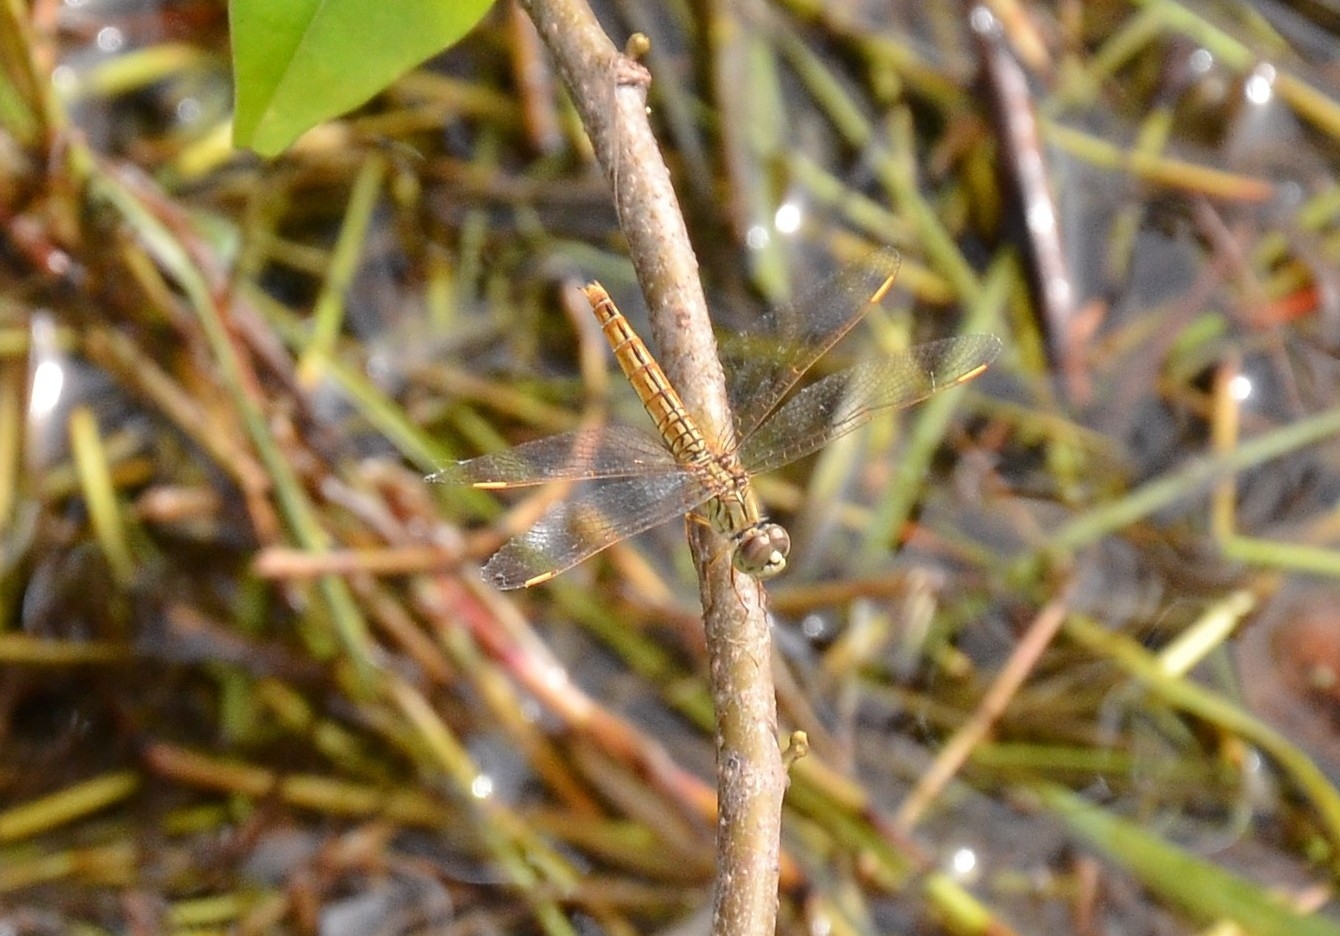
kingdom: Animalia
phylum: Arthropoda
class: Insecta
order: Odonata
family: Libellulidae
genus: Brachythemis
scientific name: Brachythemis contaminata
